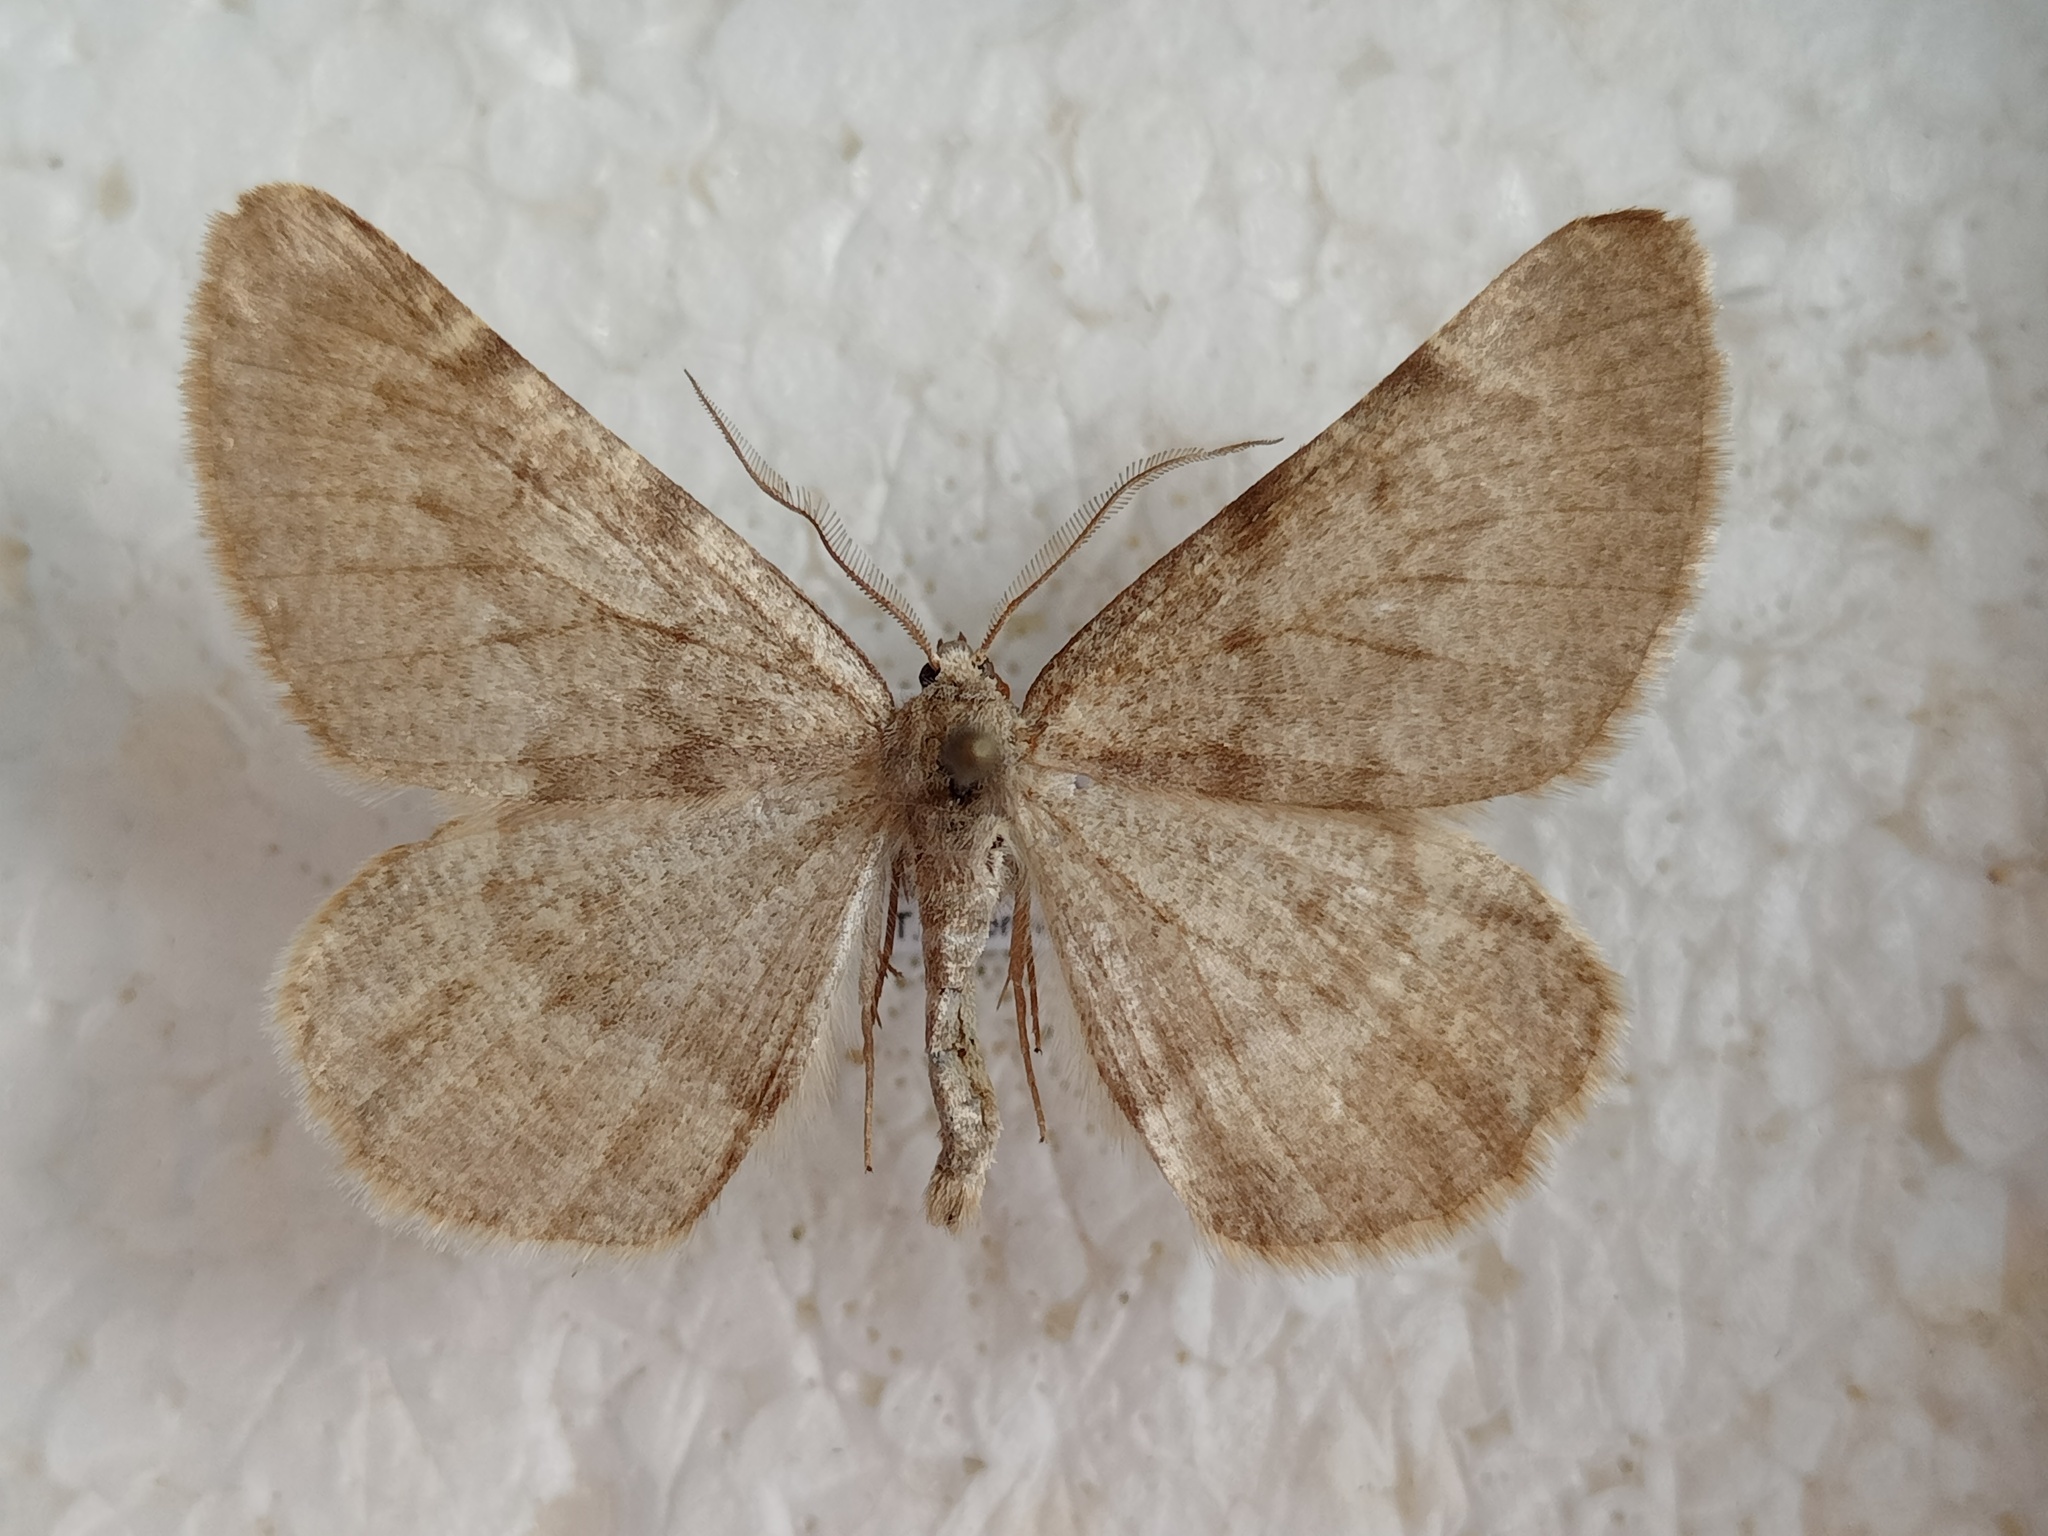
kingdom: Animalia
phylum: Arthropoda
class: Insecta
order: Lepidoptera
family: Geometridae
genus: Sciadia
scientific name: Sciadia
